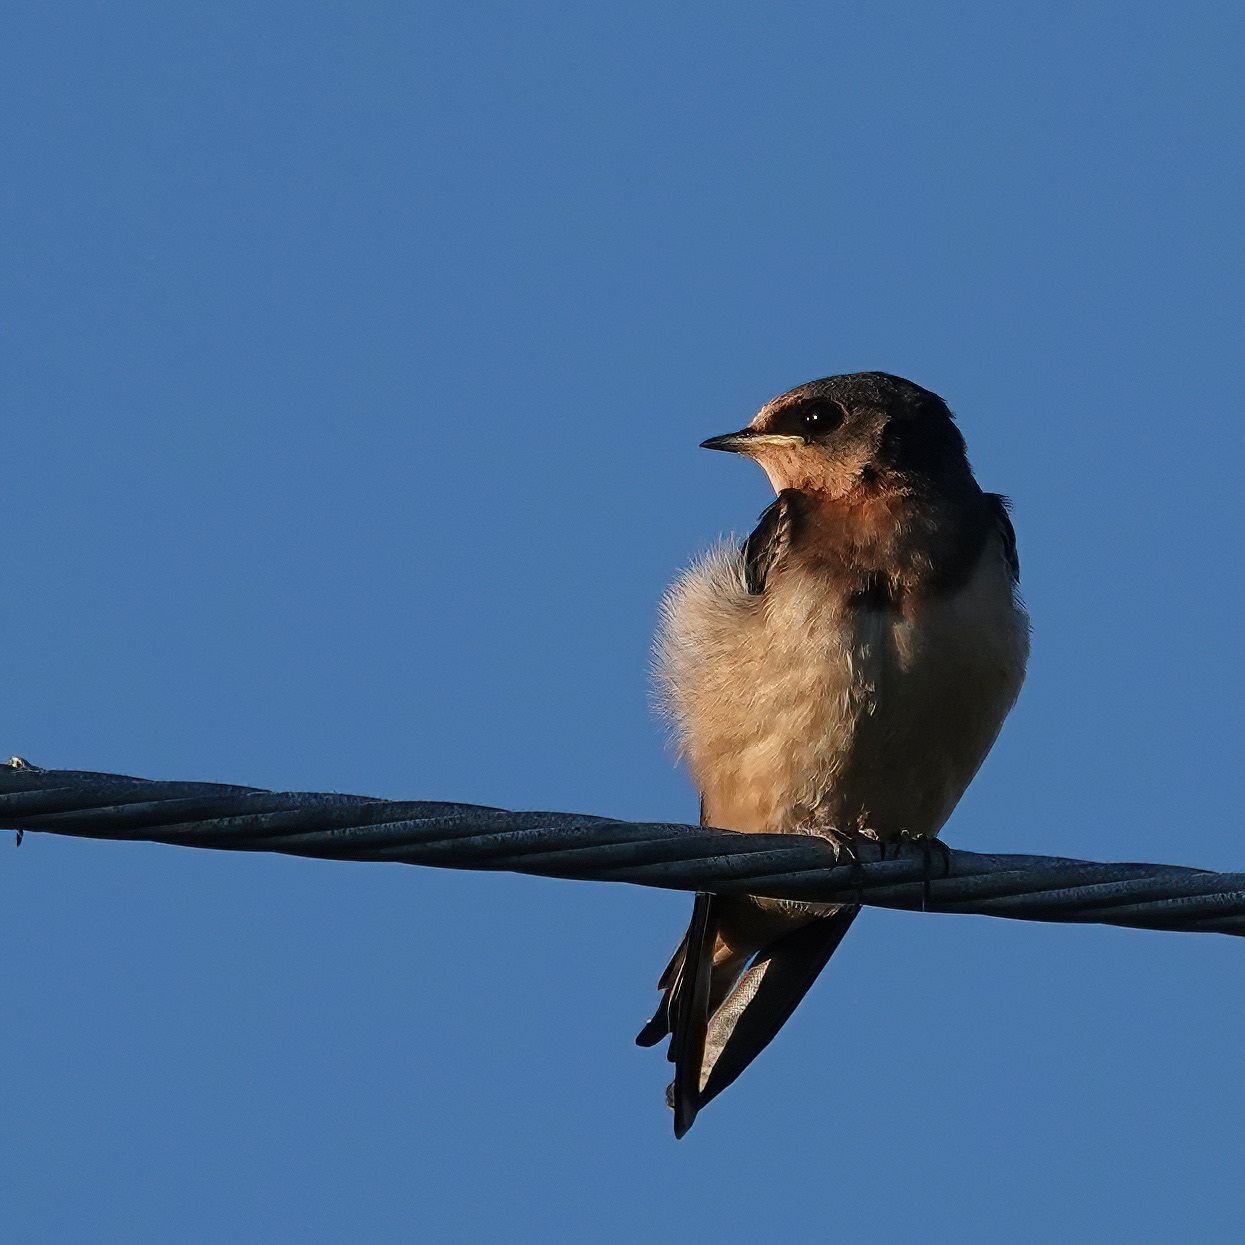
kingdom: Animalia
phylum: Chordata
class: Aves
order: Passeriformes
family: Hirundinidae
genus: Hirundo
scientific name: Hirundo rustica
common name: Barn swallow
